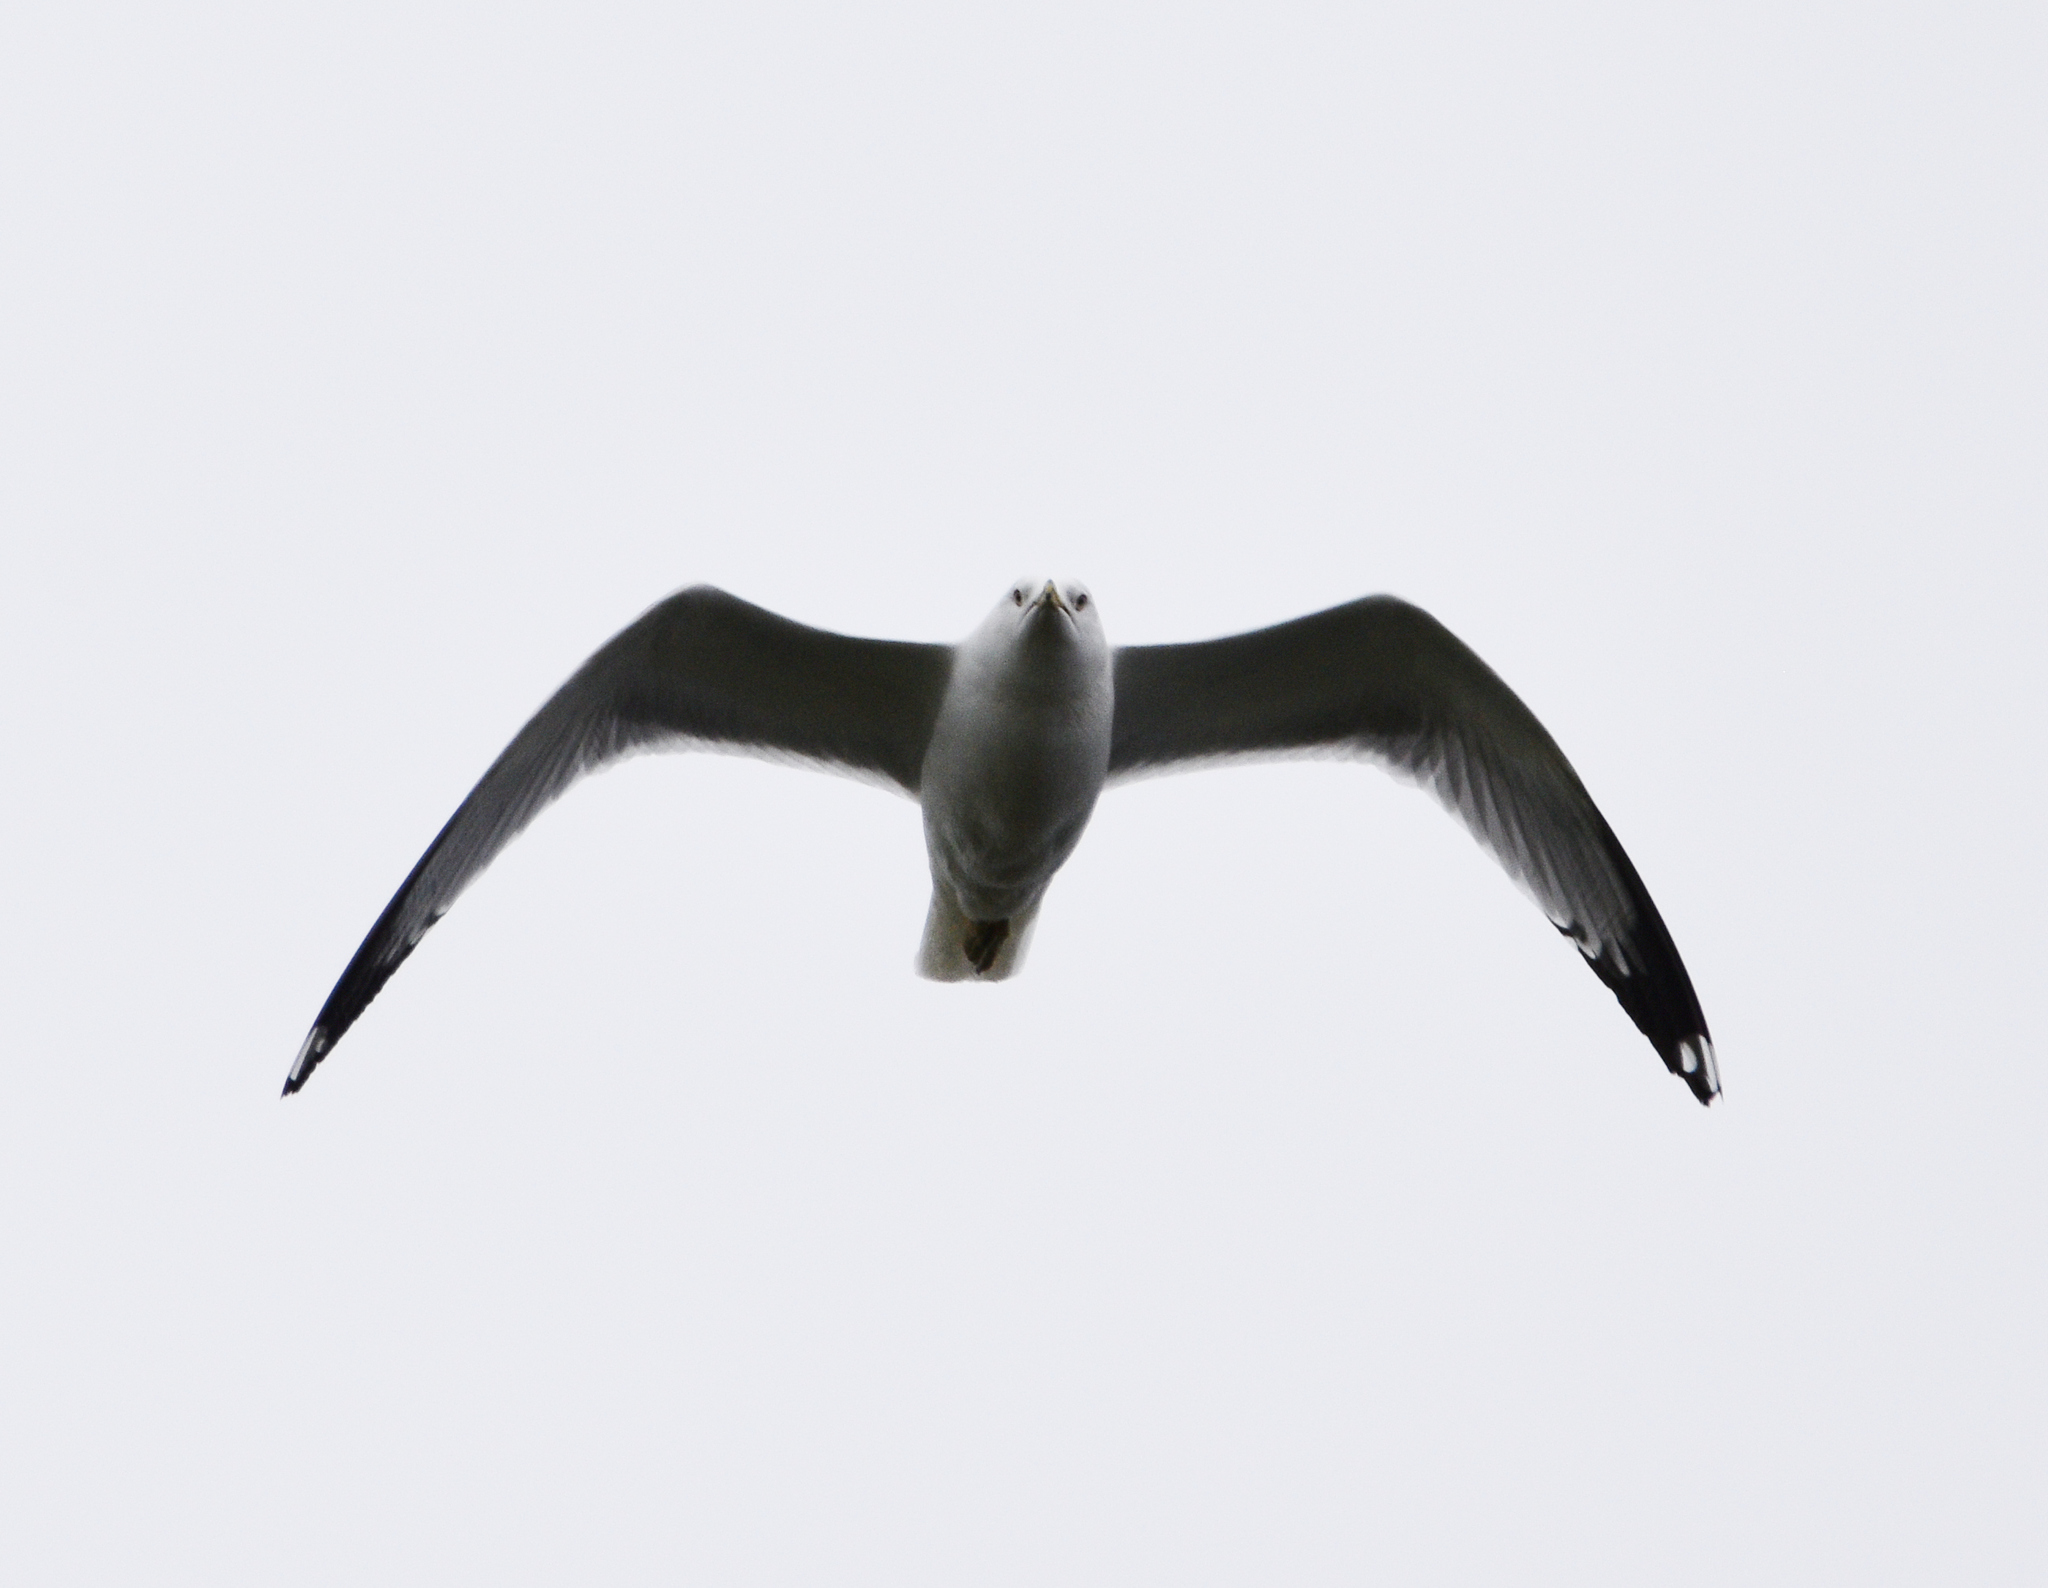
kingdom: Animalia
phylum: Chordata
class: Aves
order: Charadriiformes
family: Laridae
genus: Larus
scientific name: Larus delawarensis
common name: Ring-billed gull
